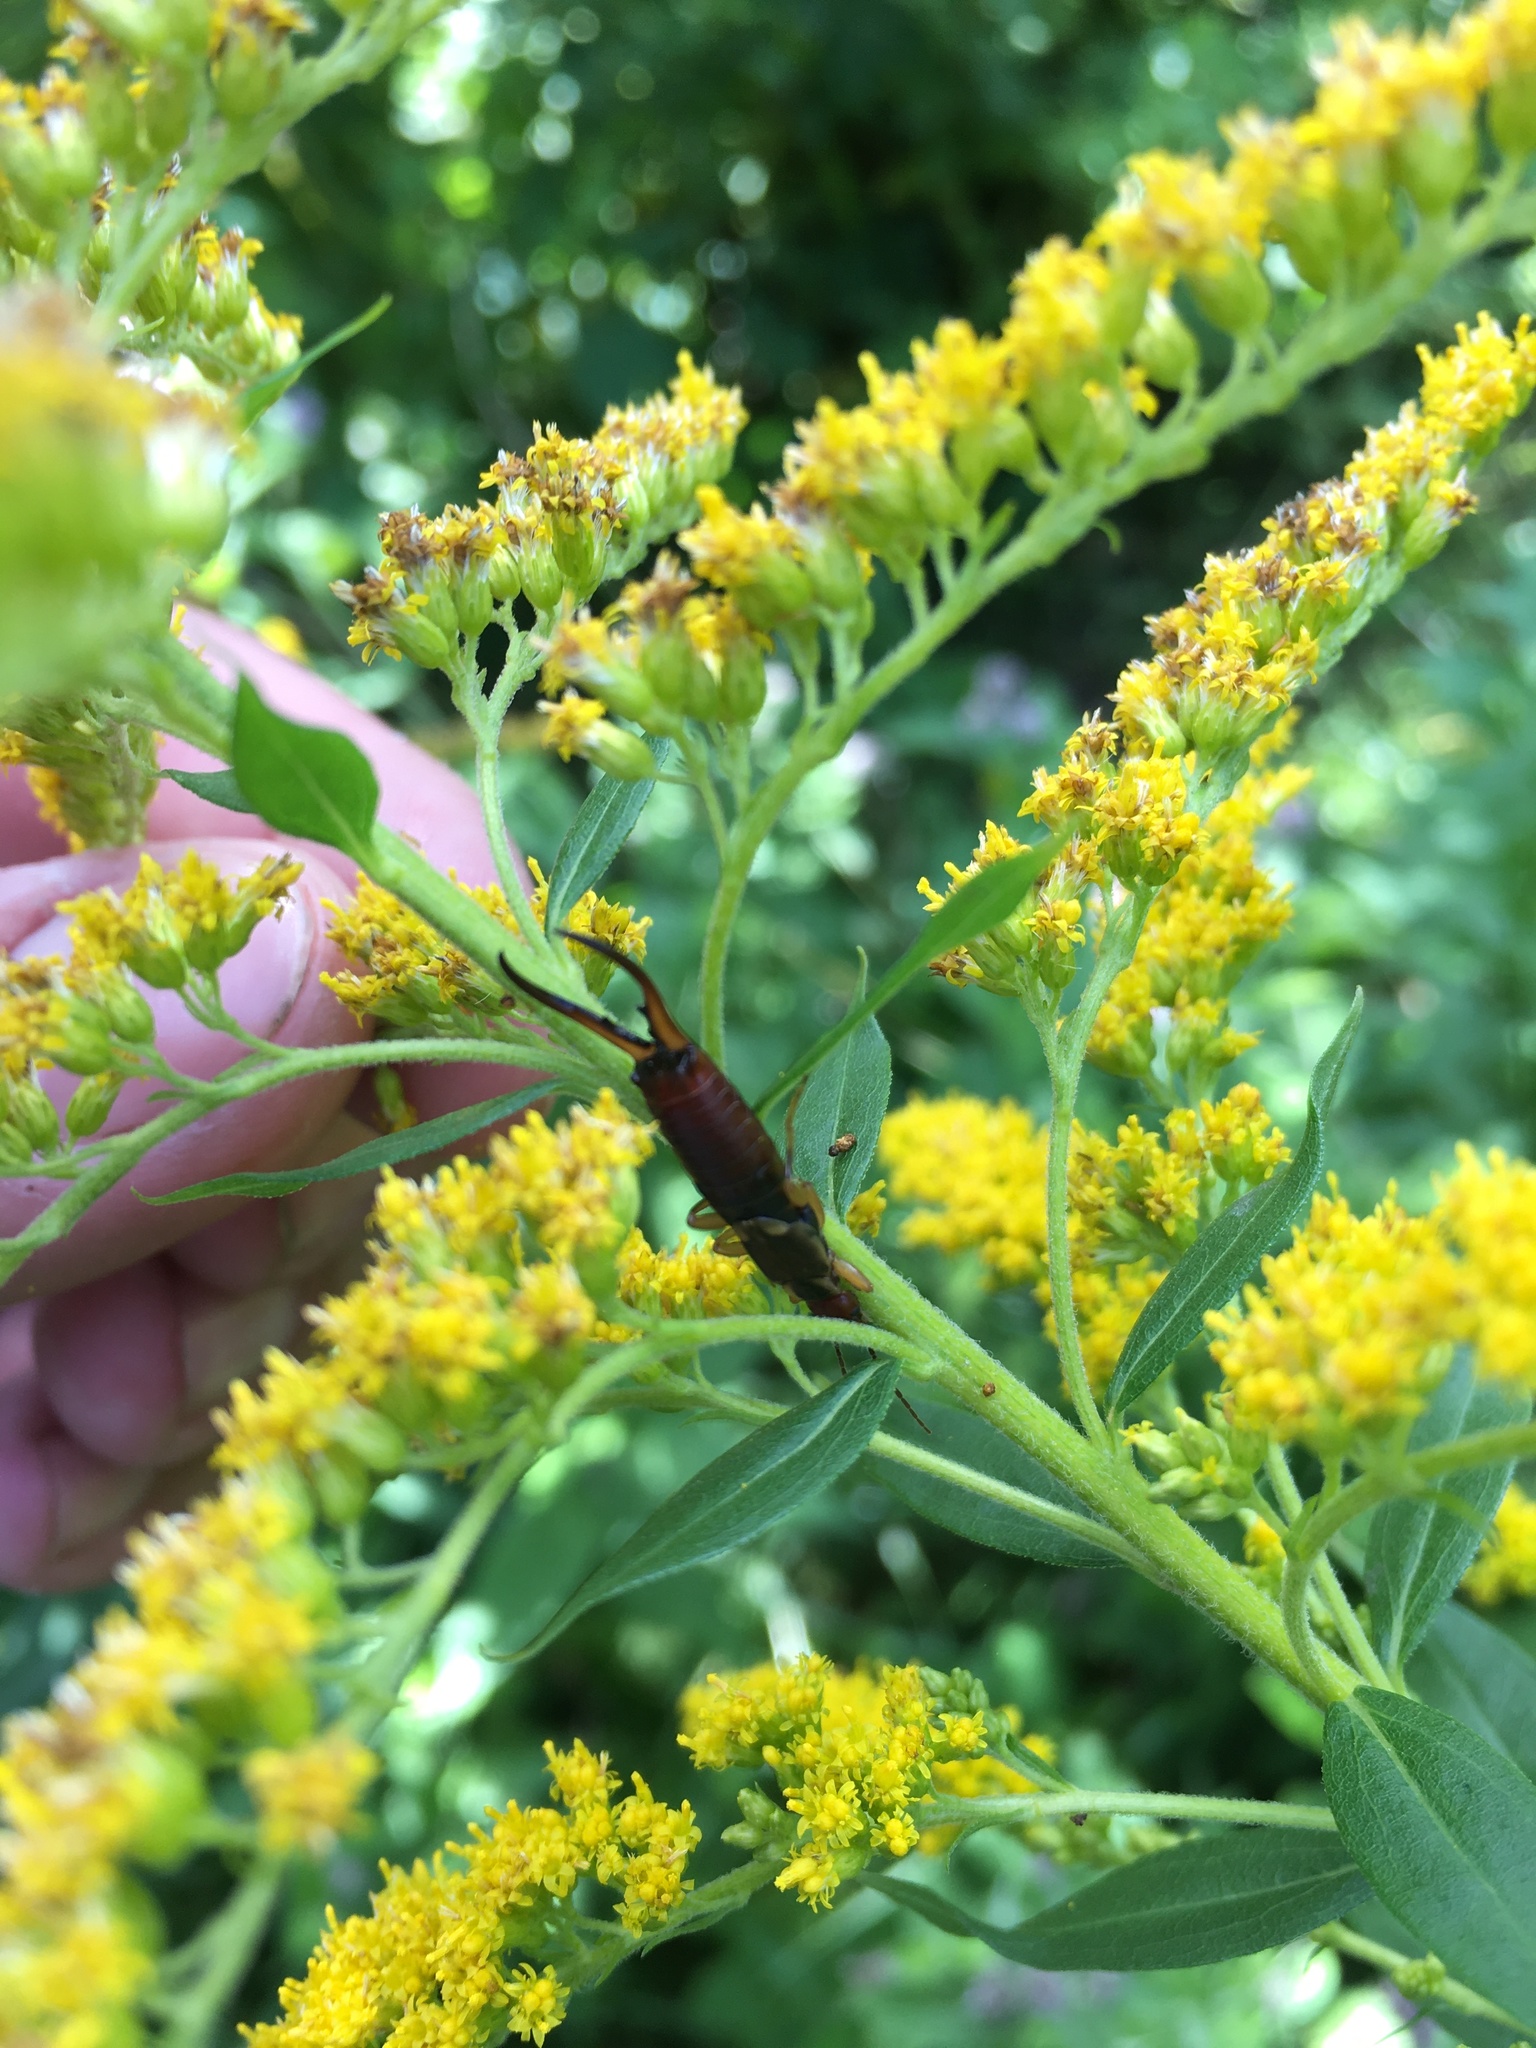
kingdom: Animalia
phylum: Arthropoda
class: Insecta
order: Dermaptera
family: Forficulidae
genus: Forficula
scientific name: Forficula
